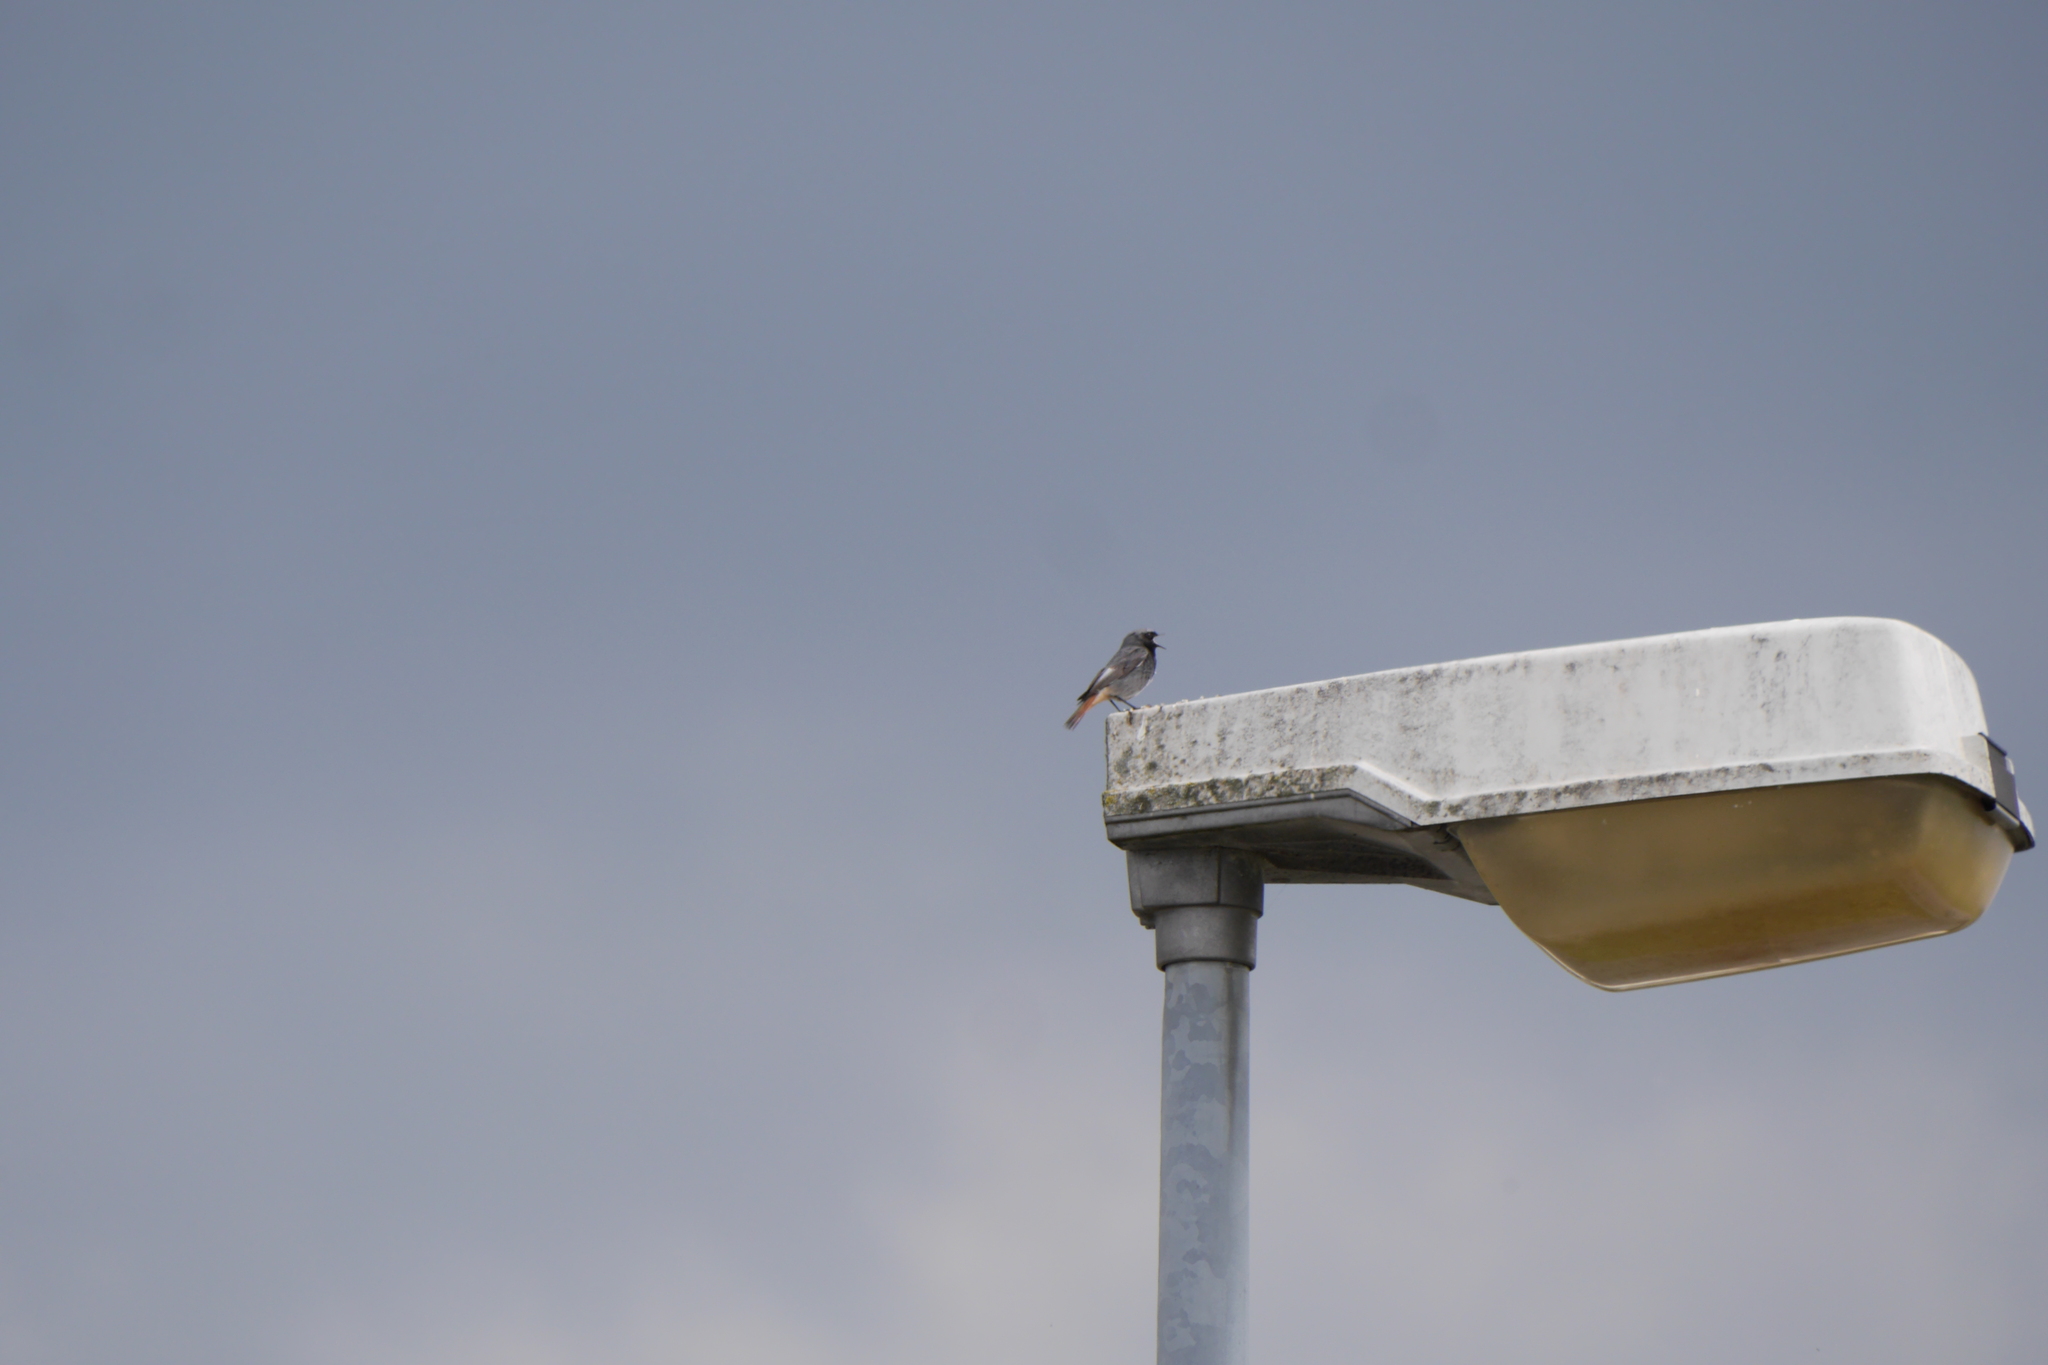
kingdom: Animalia
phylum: Chordata
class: Aves
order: Passeriformes
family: Muscicapidae
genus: Phoenicurus
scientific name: Phoenicurus ochruros
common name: Black redstart
